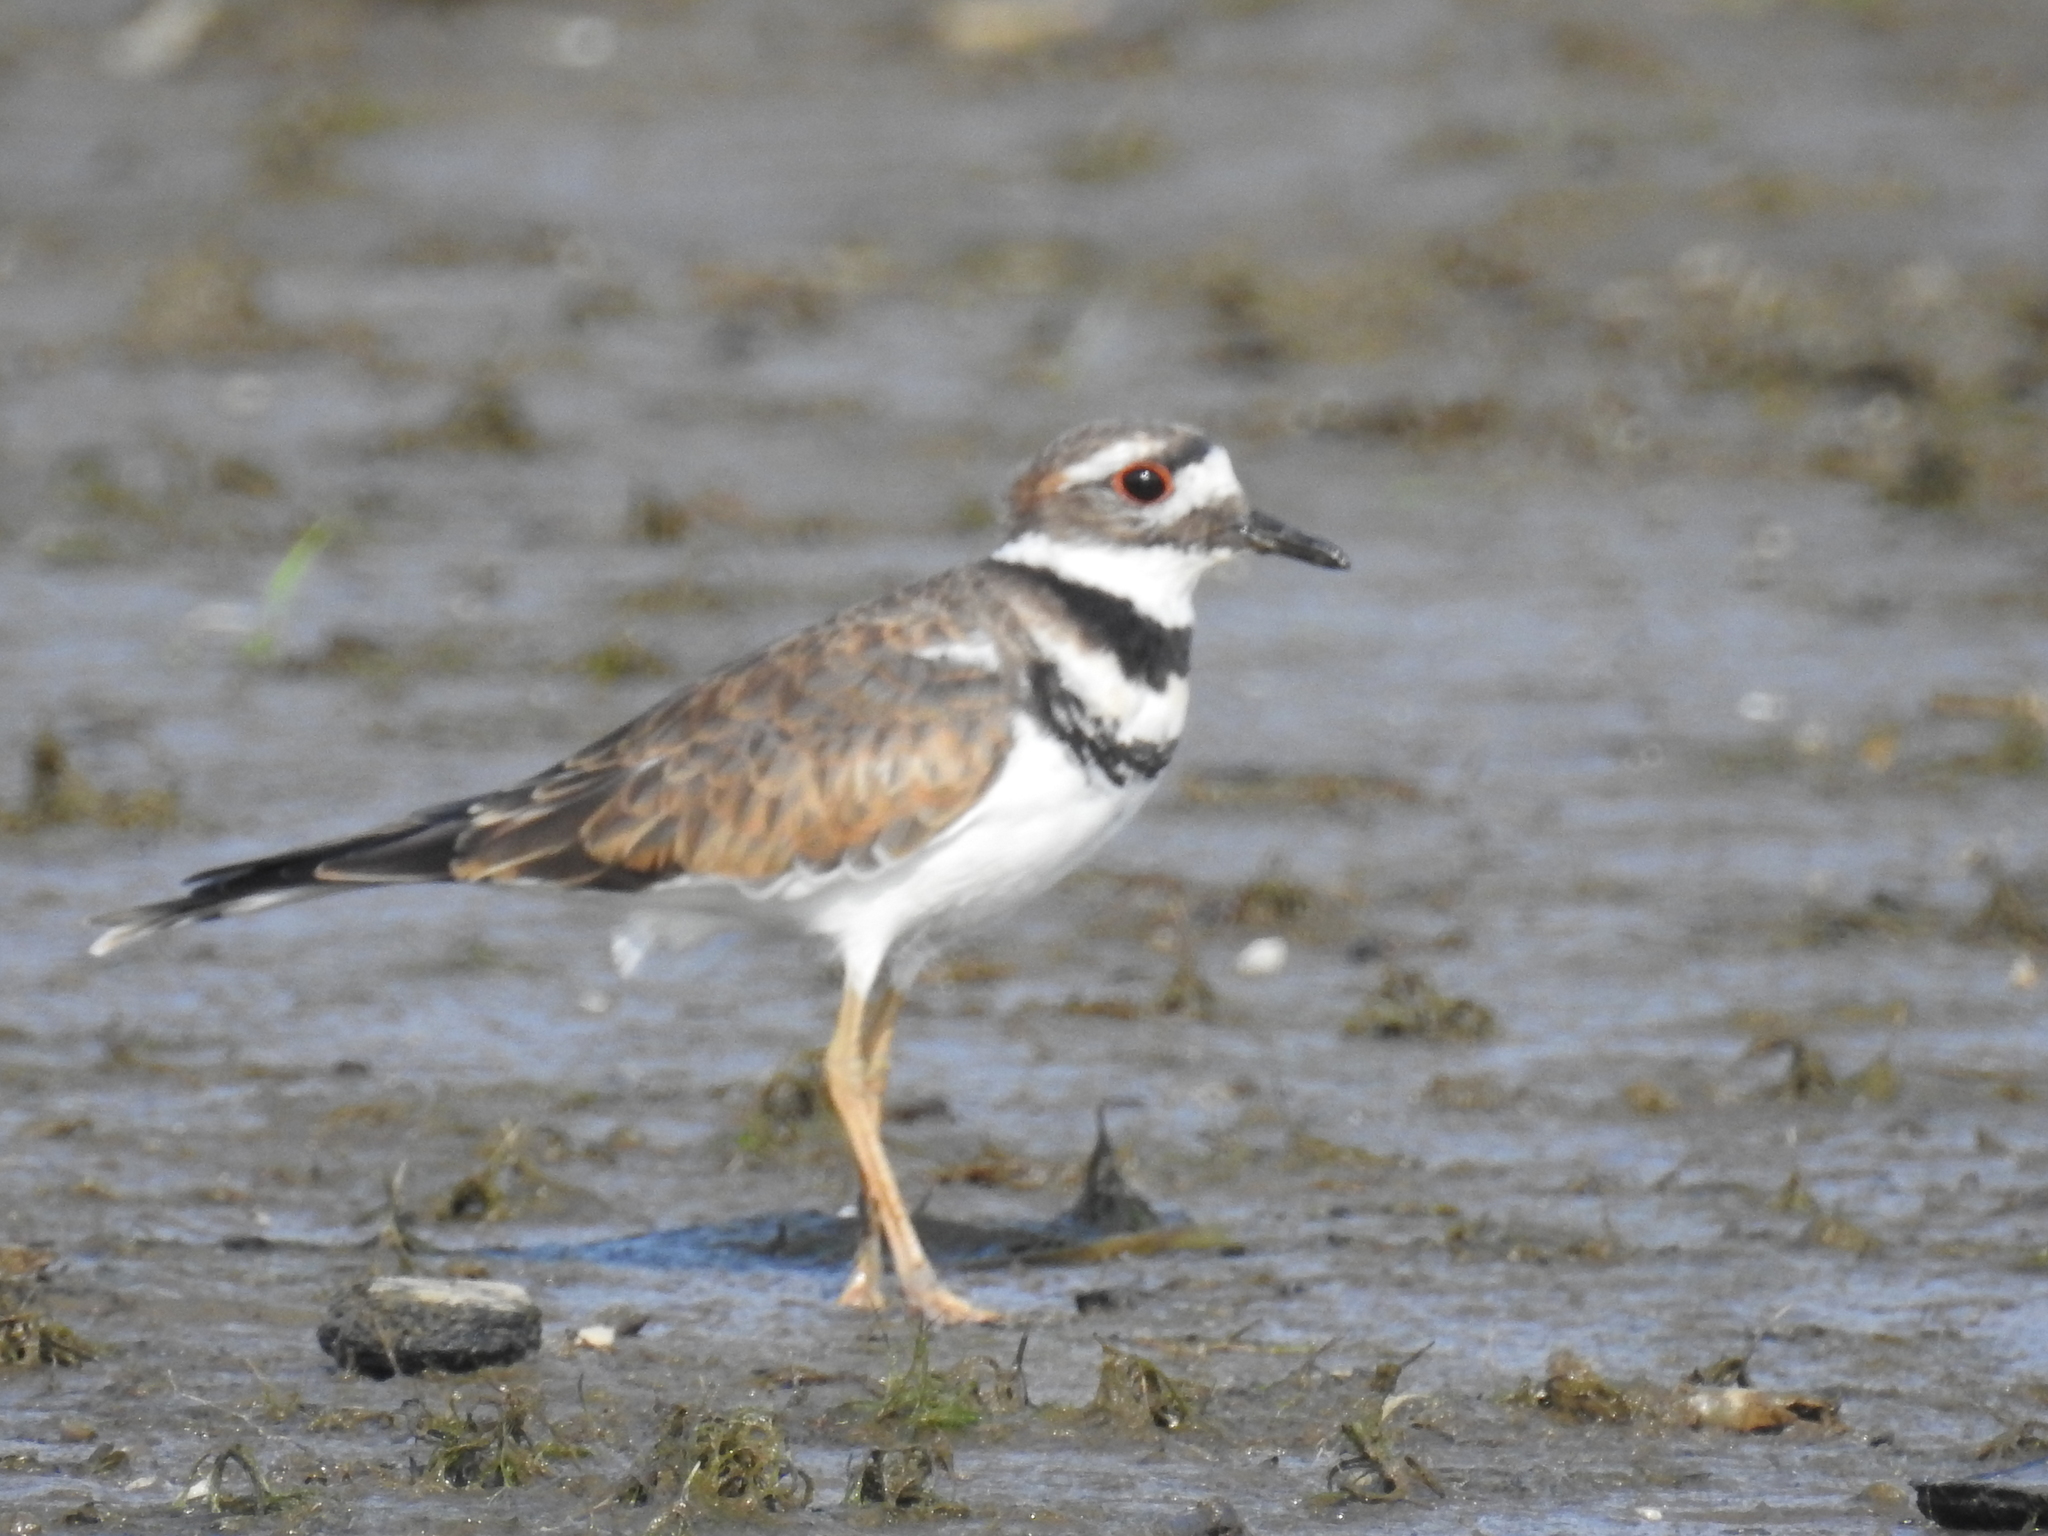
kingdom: Animalia
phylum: Chordata
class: Aves
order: Charadriiformes
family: Charadriidae
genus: Charadrius
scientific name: Charadrius vociferus
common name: Killdeer
